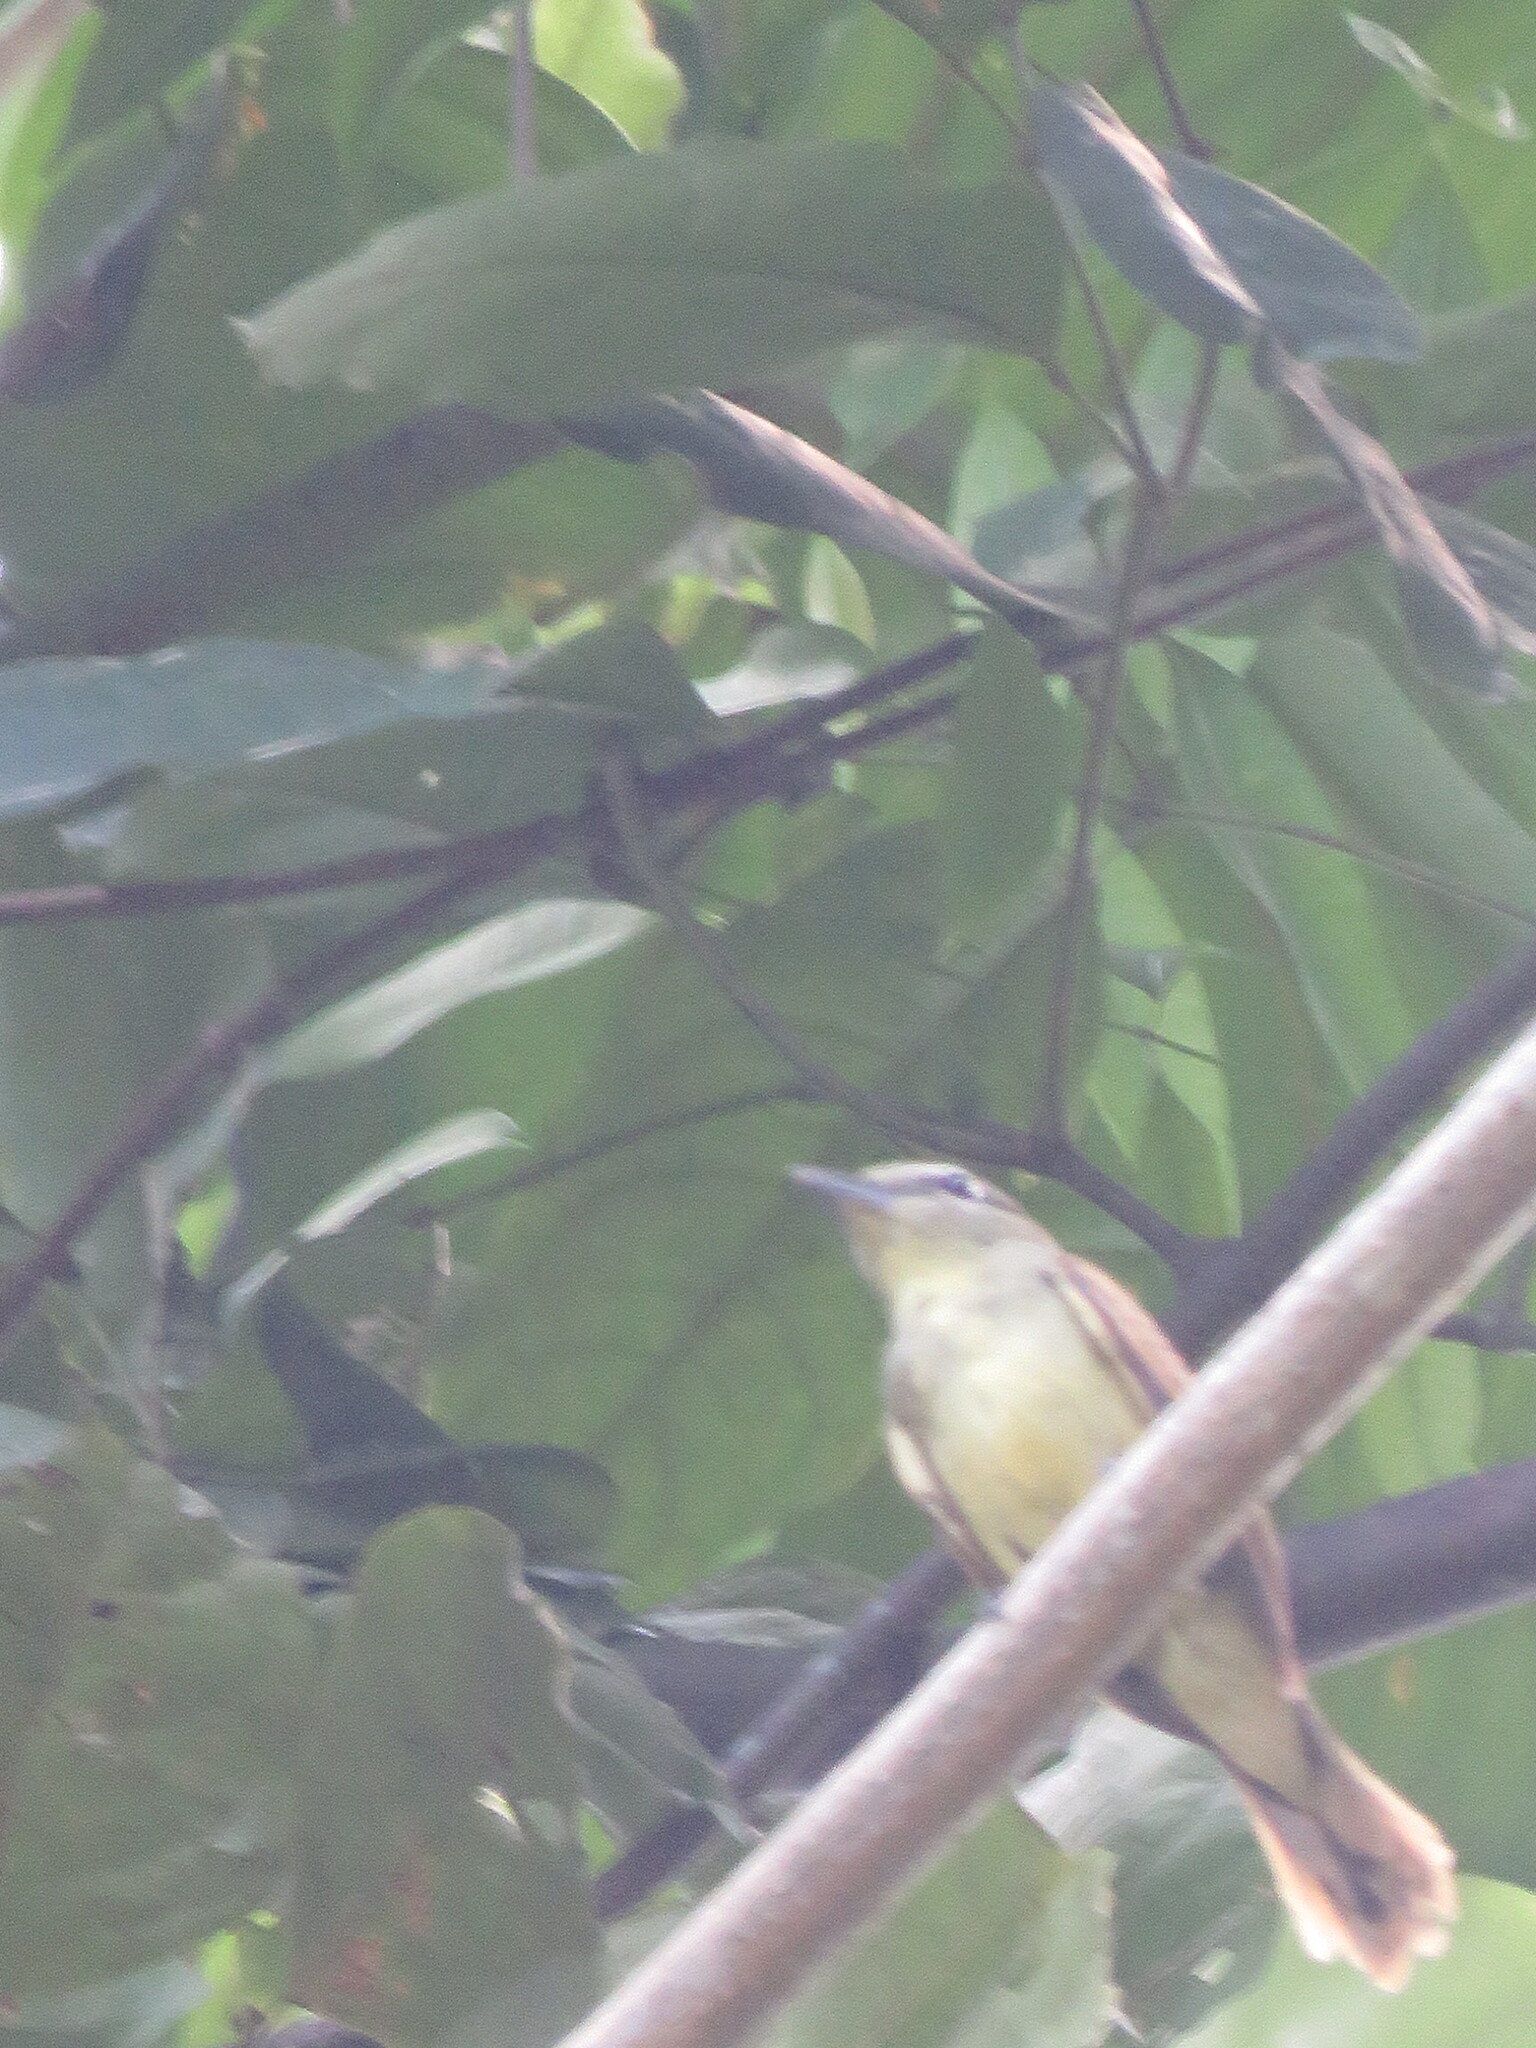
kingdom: Animalia
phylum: Chordata
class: Aves
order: Passeriformes
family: Cotingidae
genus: Pachyramphus
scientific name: Pachyramphus polychopterus
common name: White-winged becard
